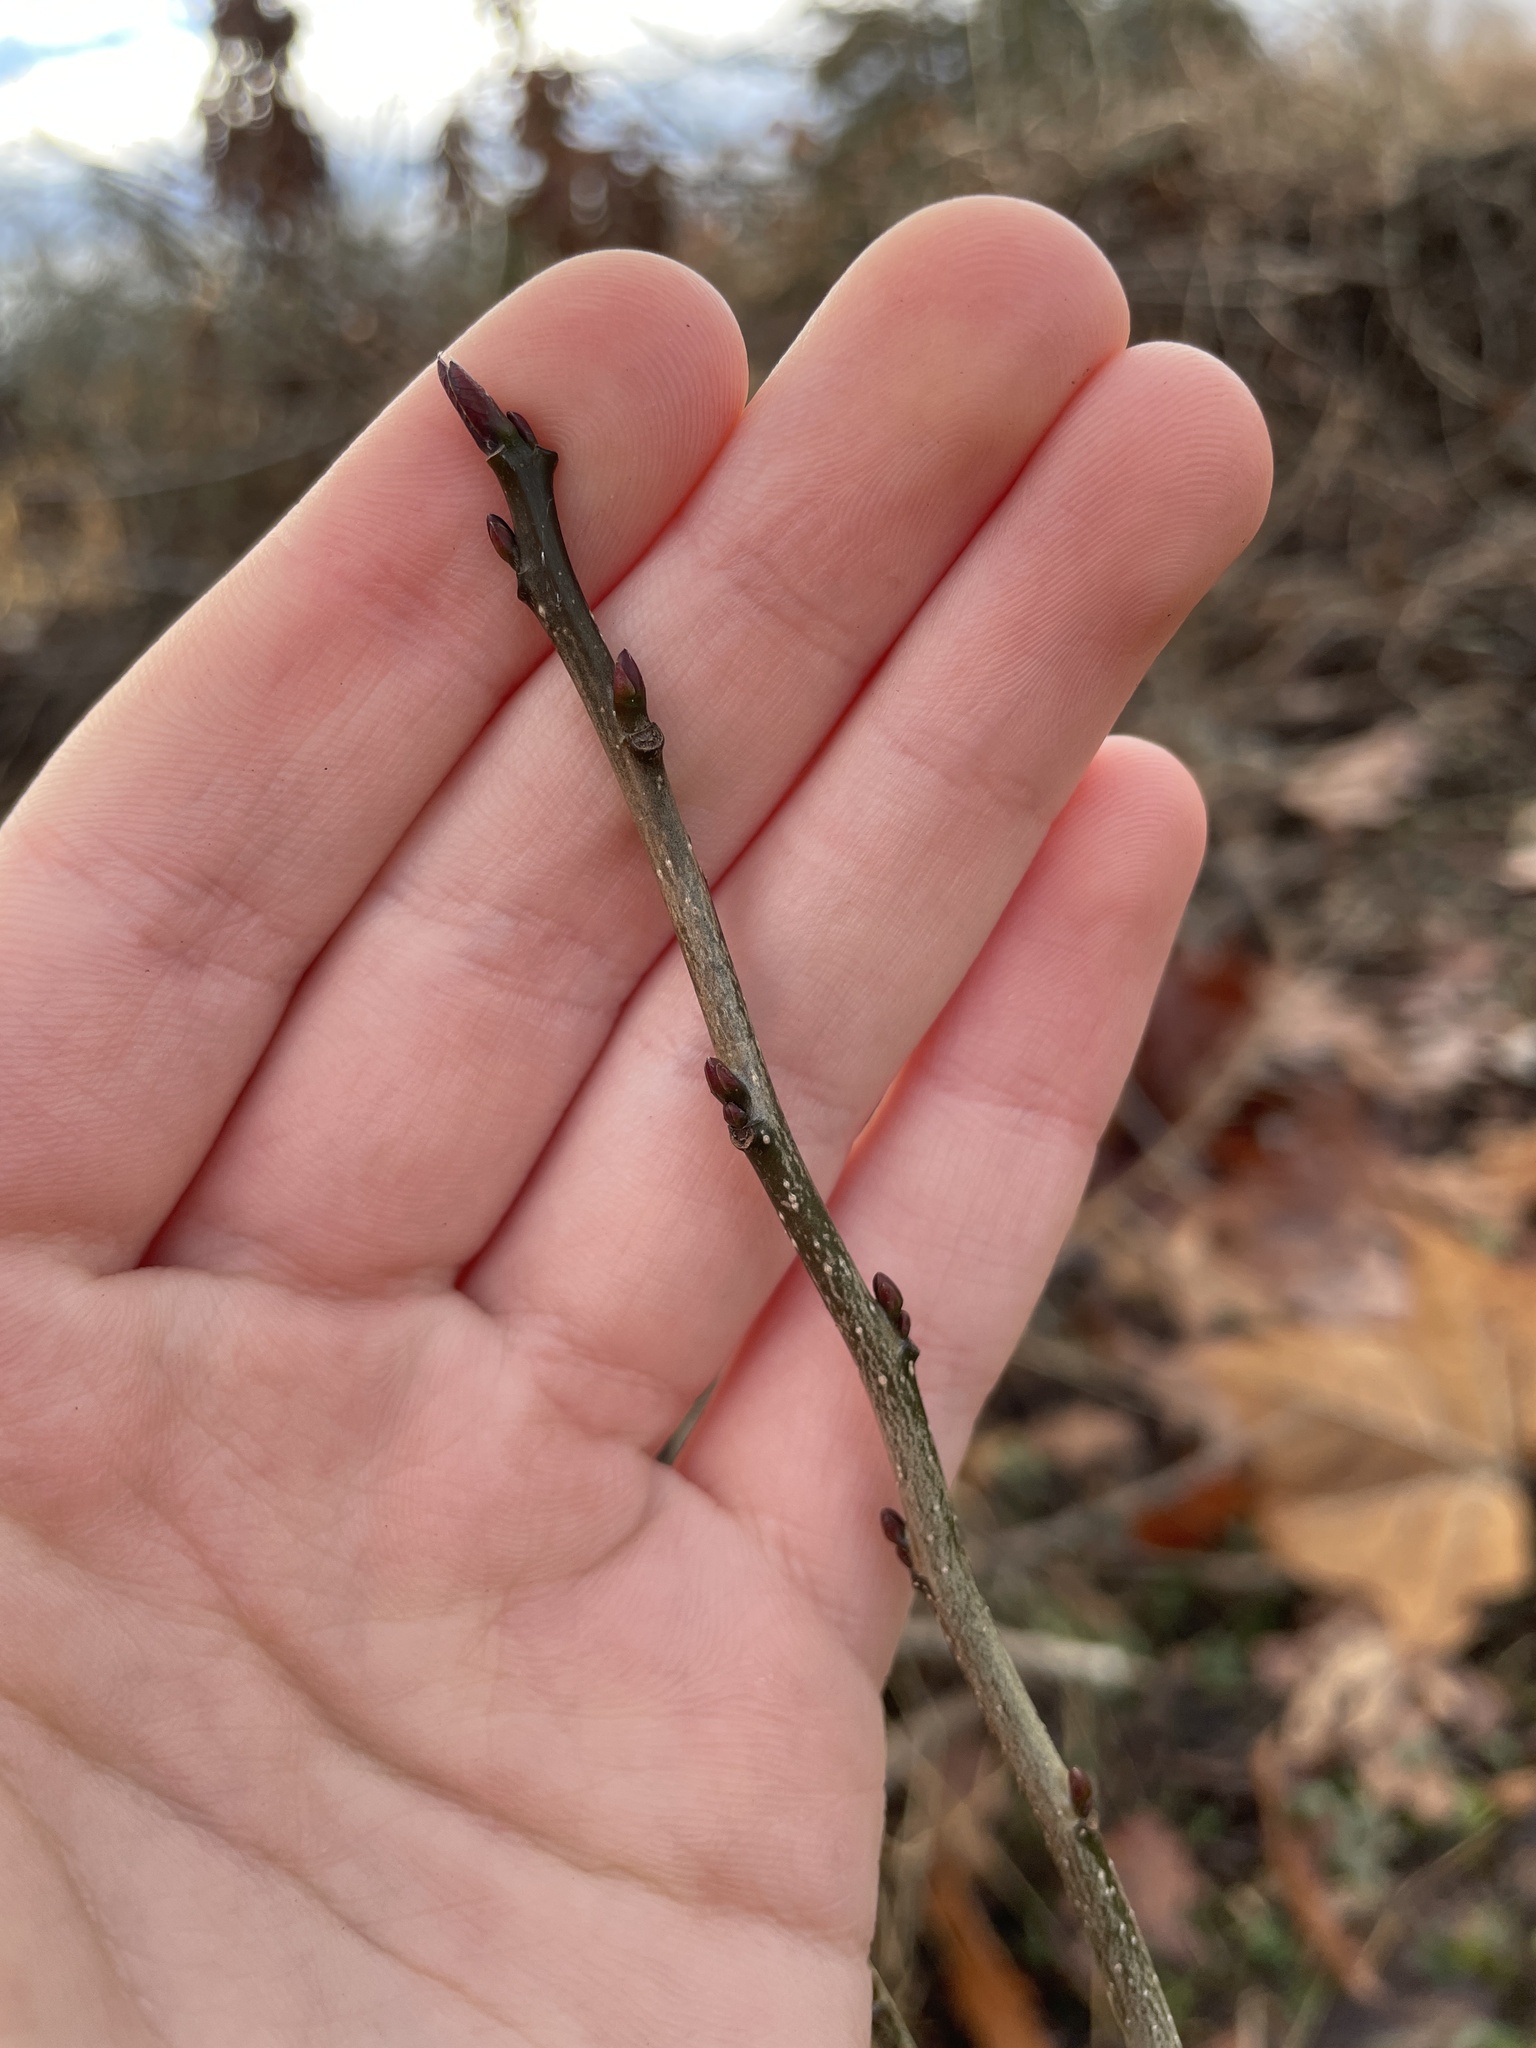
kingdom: Plantae
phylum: Tracheophyta
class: Magnoliopsida
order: Saxifragales
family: Altingiaceae
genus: Liquidambar
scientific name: Liquidambar styraciflua
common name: Sweet gum
